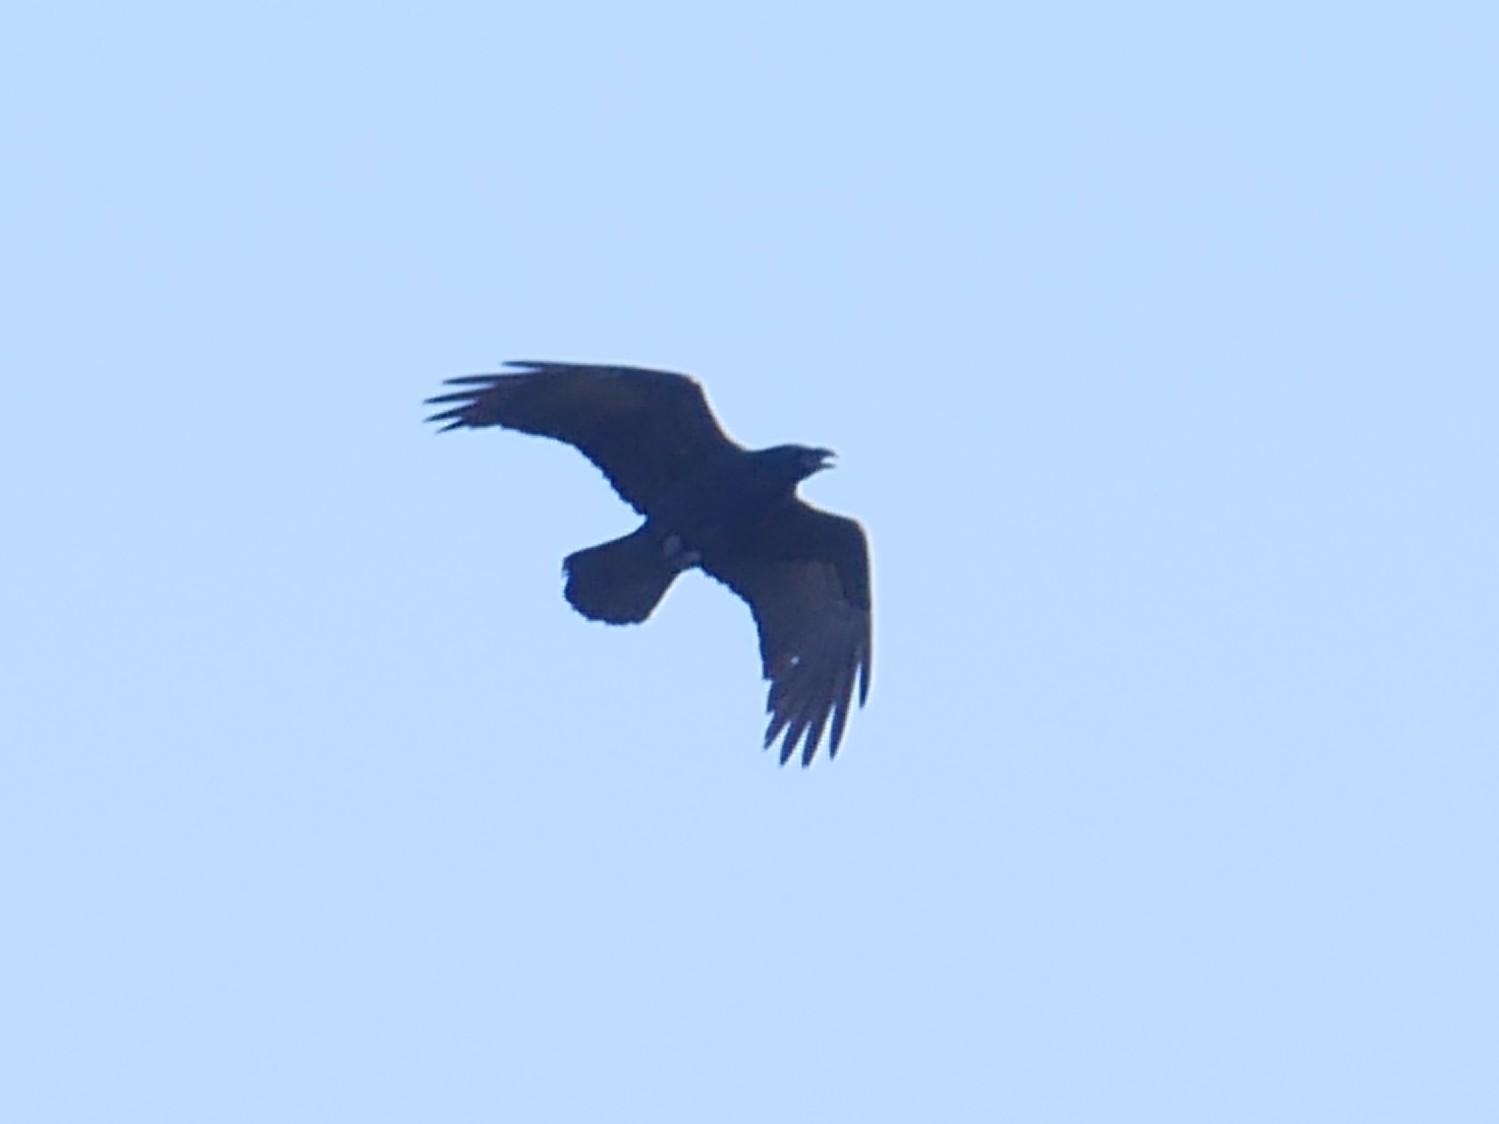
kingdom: Animalia
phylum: Chordata
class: Aves
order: Passeriformes
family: Corvidae
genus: Corvus
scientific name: Corvus corax
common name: Common raven
